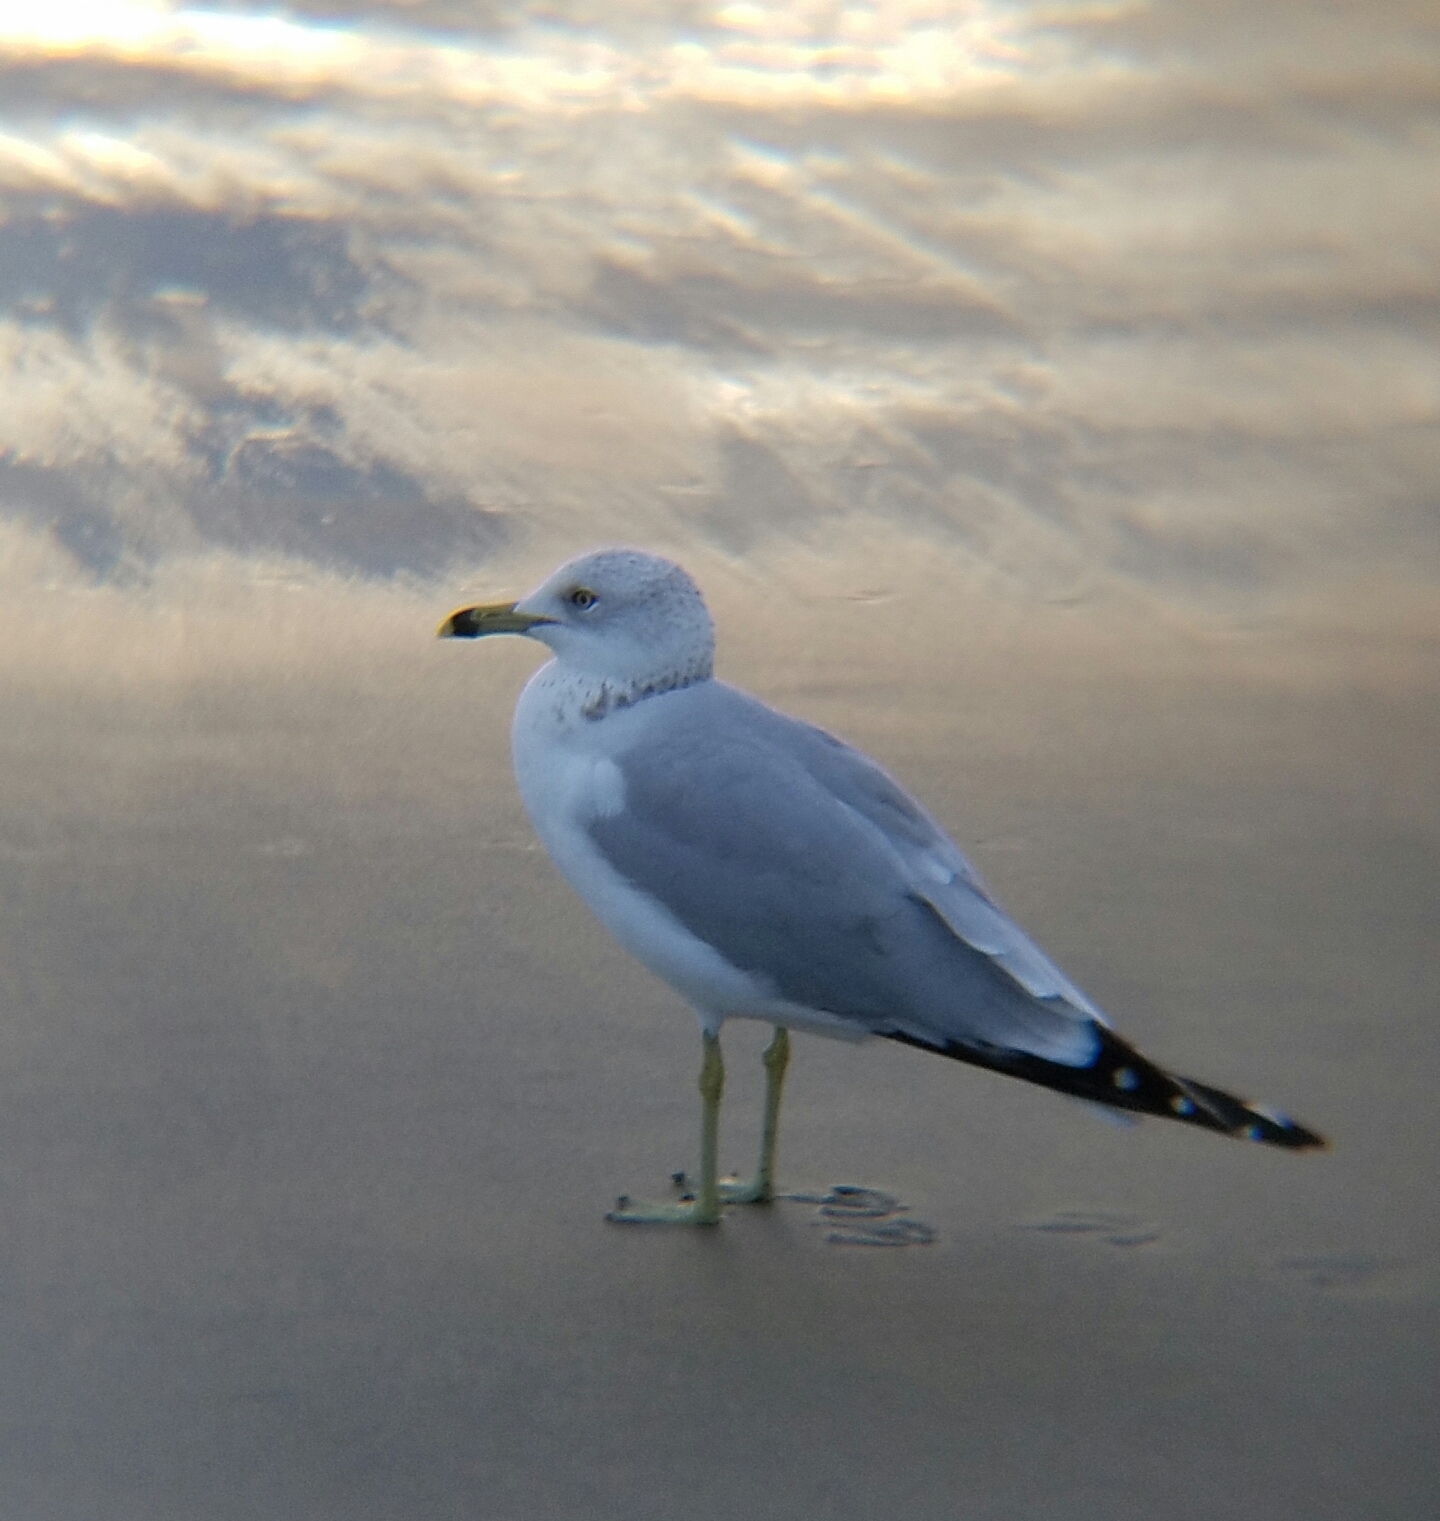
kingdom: Animalia
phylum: Chordata
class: Aves
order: Charadriiformes
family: Laridae
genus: Larus
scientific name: Larus delawarensis
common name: Ring-billed gull
